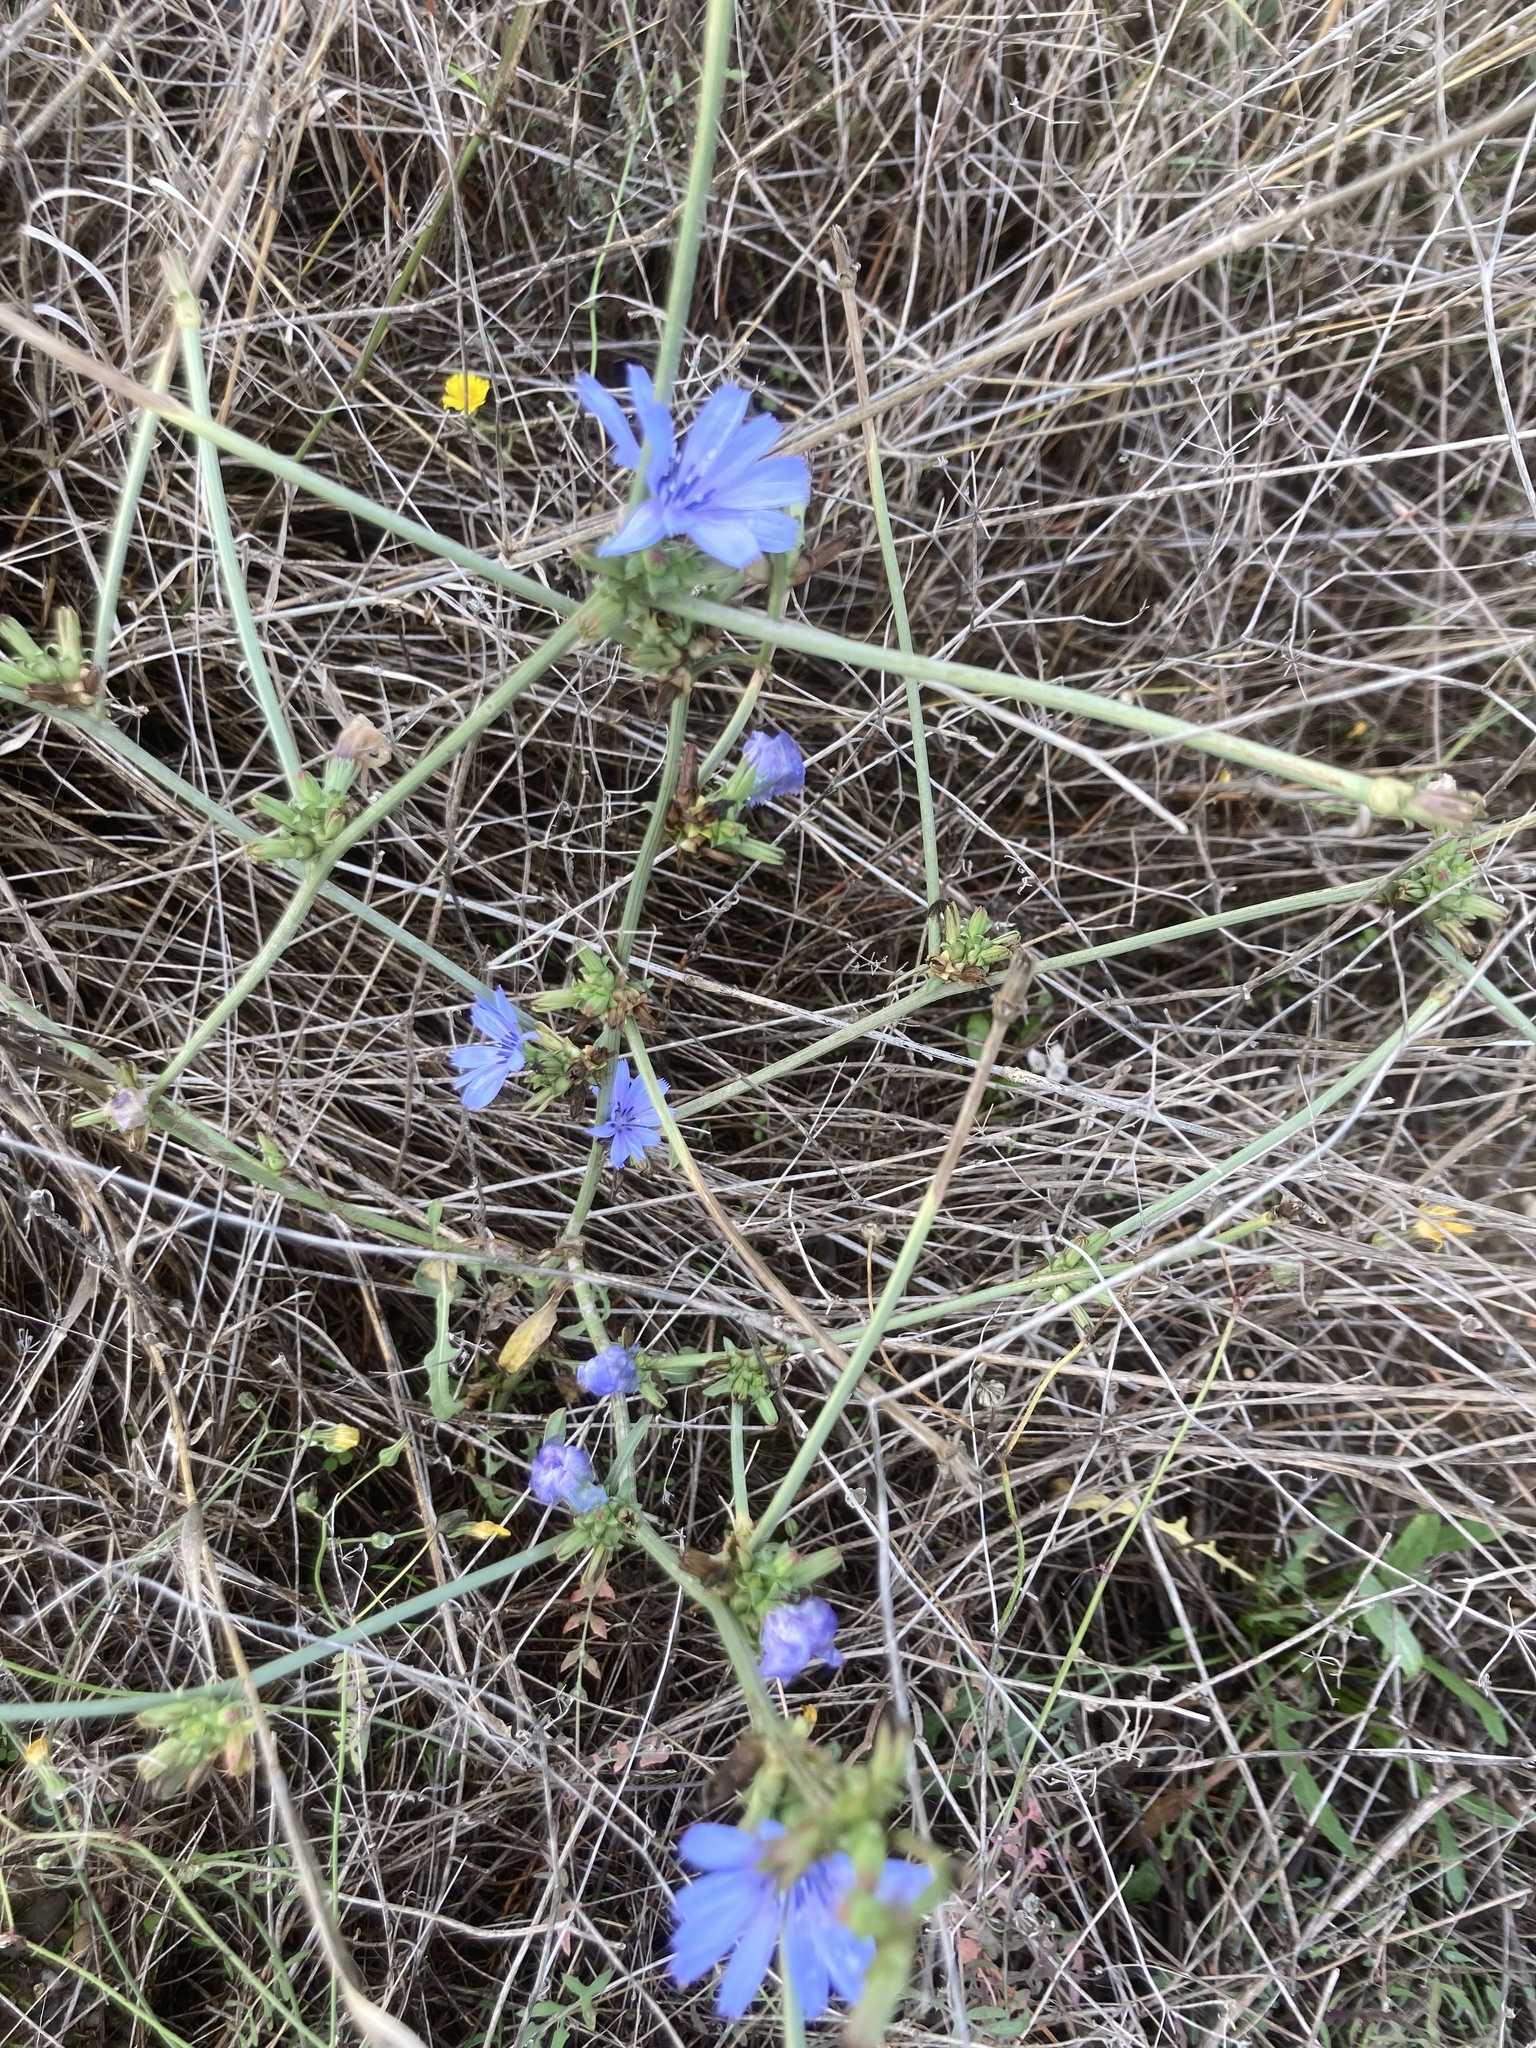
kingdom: Plantae
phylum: Tracheophyta
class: Magnoliopsida
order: Asterales
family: Asteraceae
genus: Cichorium
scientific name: Cichorium intybus
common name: Chicory
